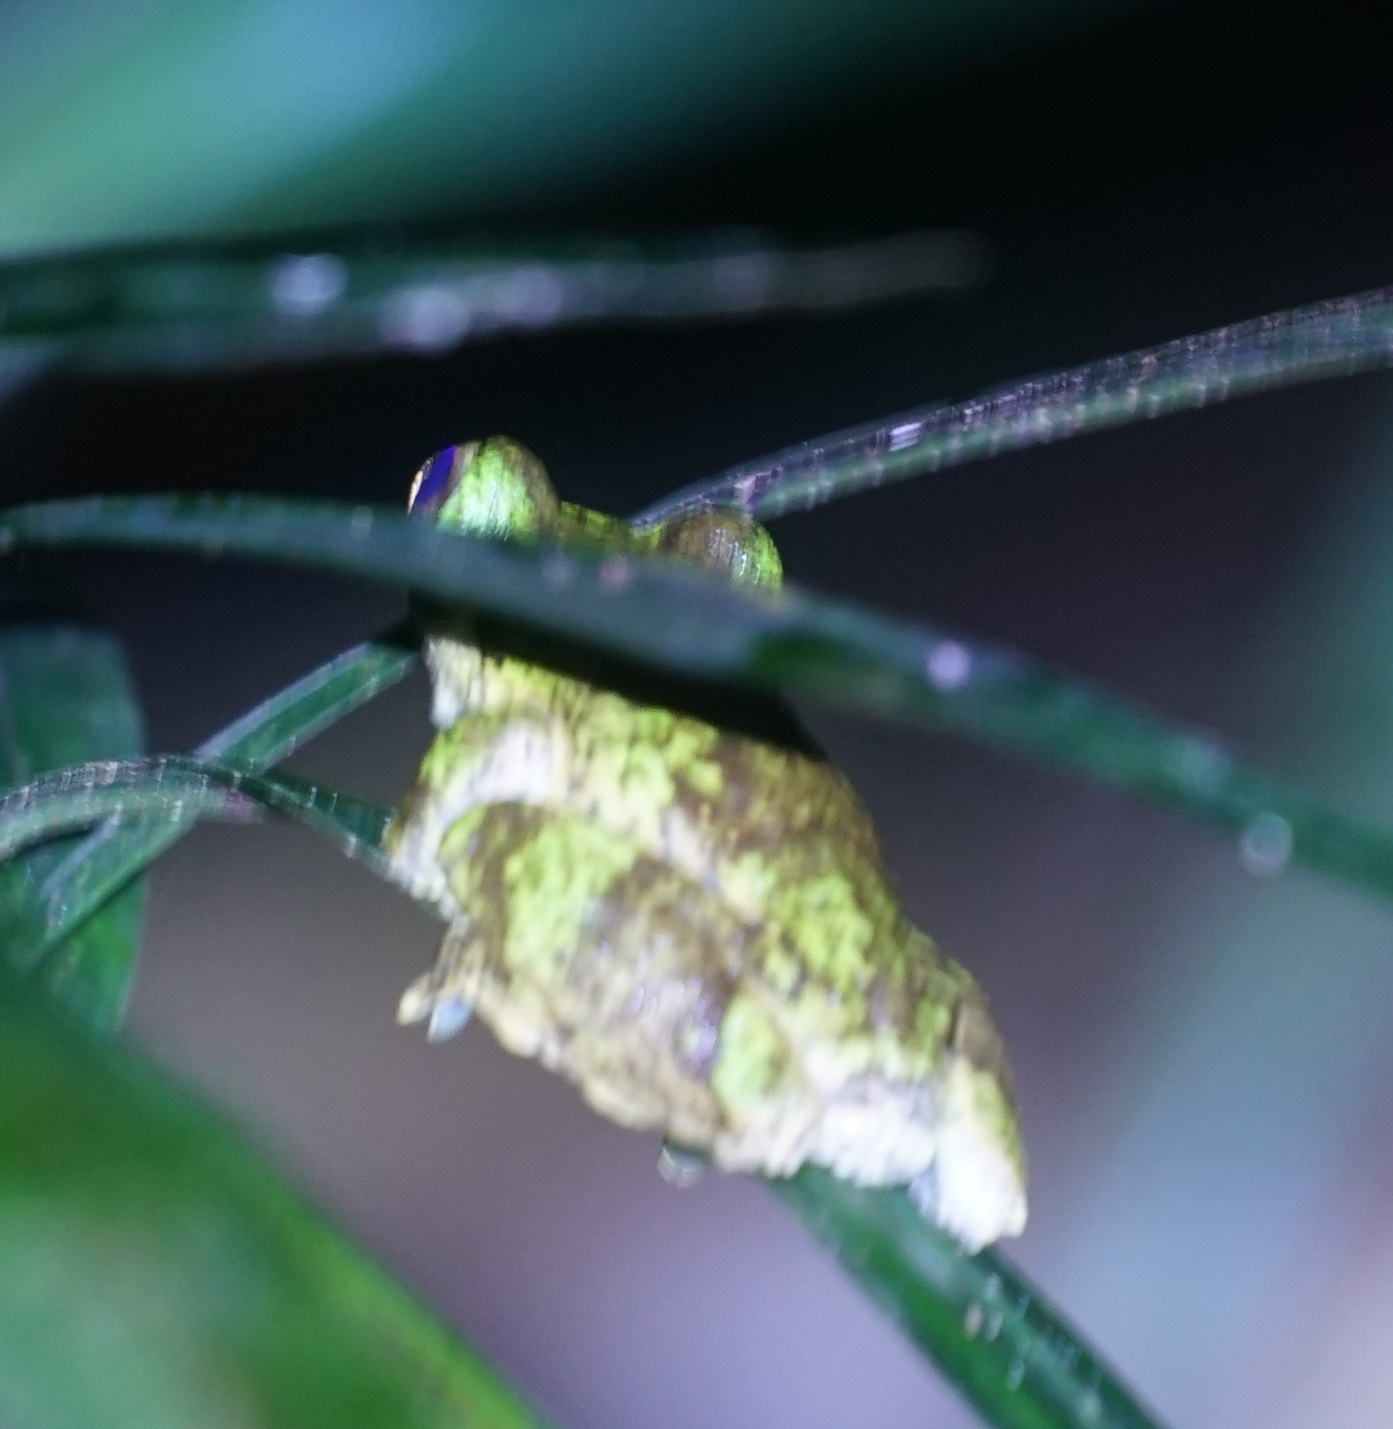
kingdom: Animalia
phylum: Chordata
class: Amphibia
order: Anura
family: Pelodryadidae
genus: Ranoidea
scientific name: Ranoidea serrata
